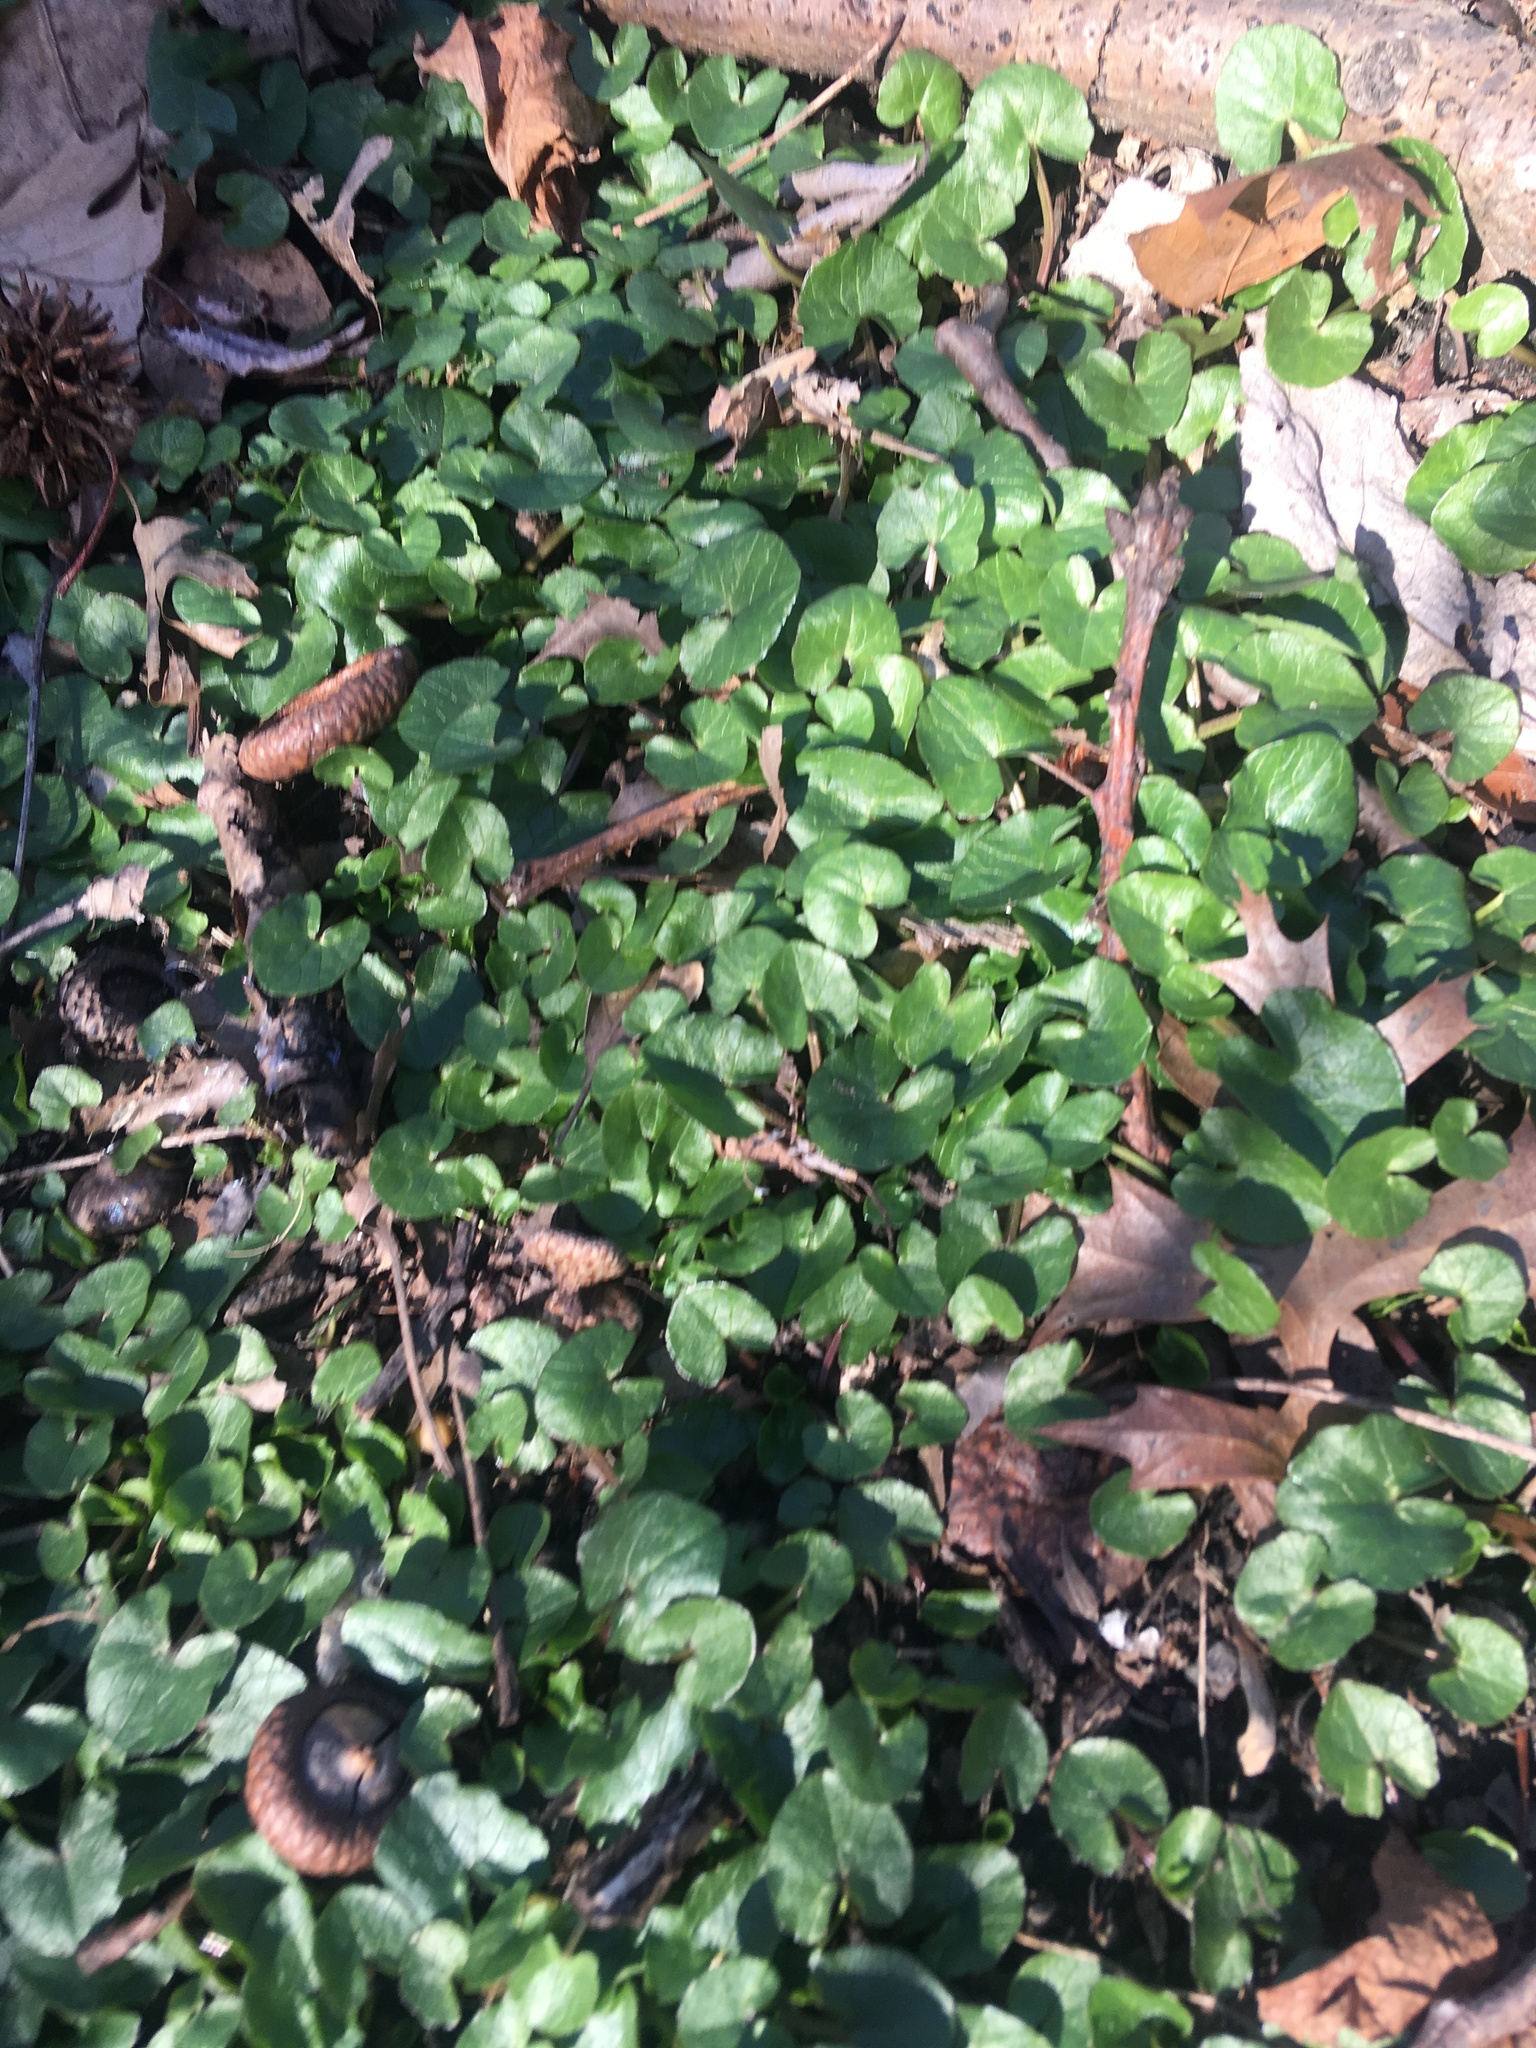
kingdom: Plantae
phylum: Tracheophyta
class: Magnoliopsida
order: Ranunculales
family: Ranunculaceae
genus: Ficaria
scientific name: Ficaria verna
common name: Lesser celandine
